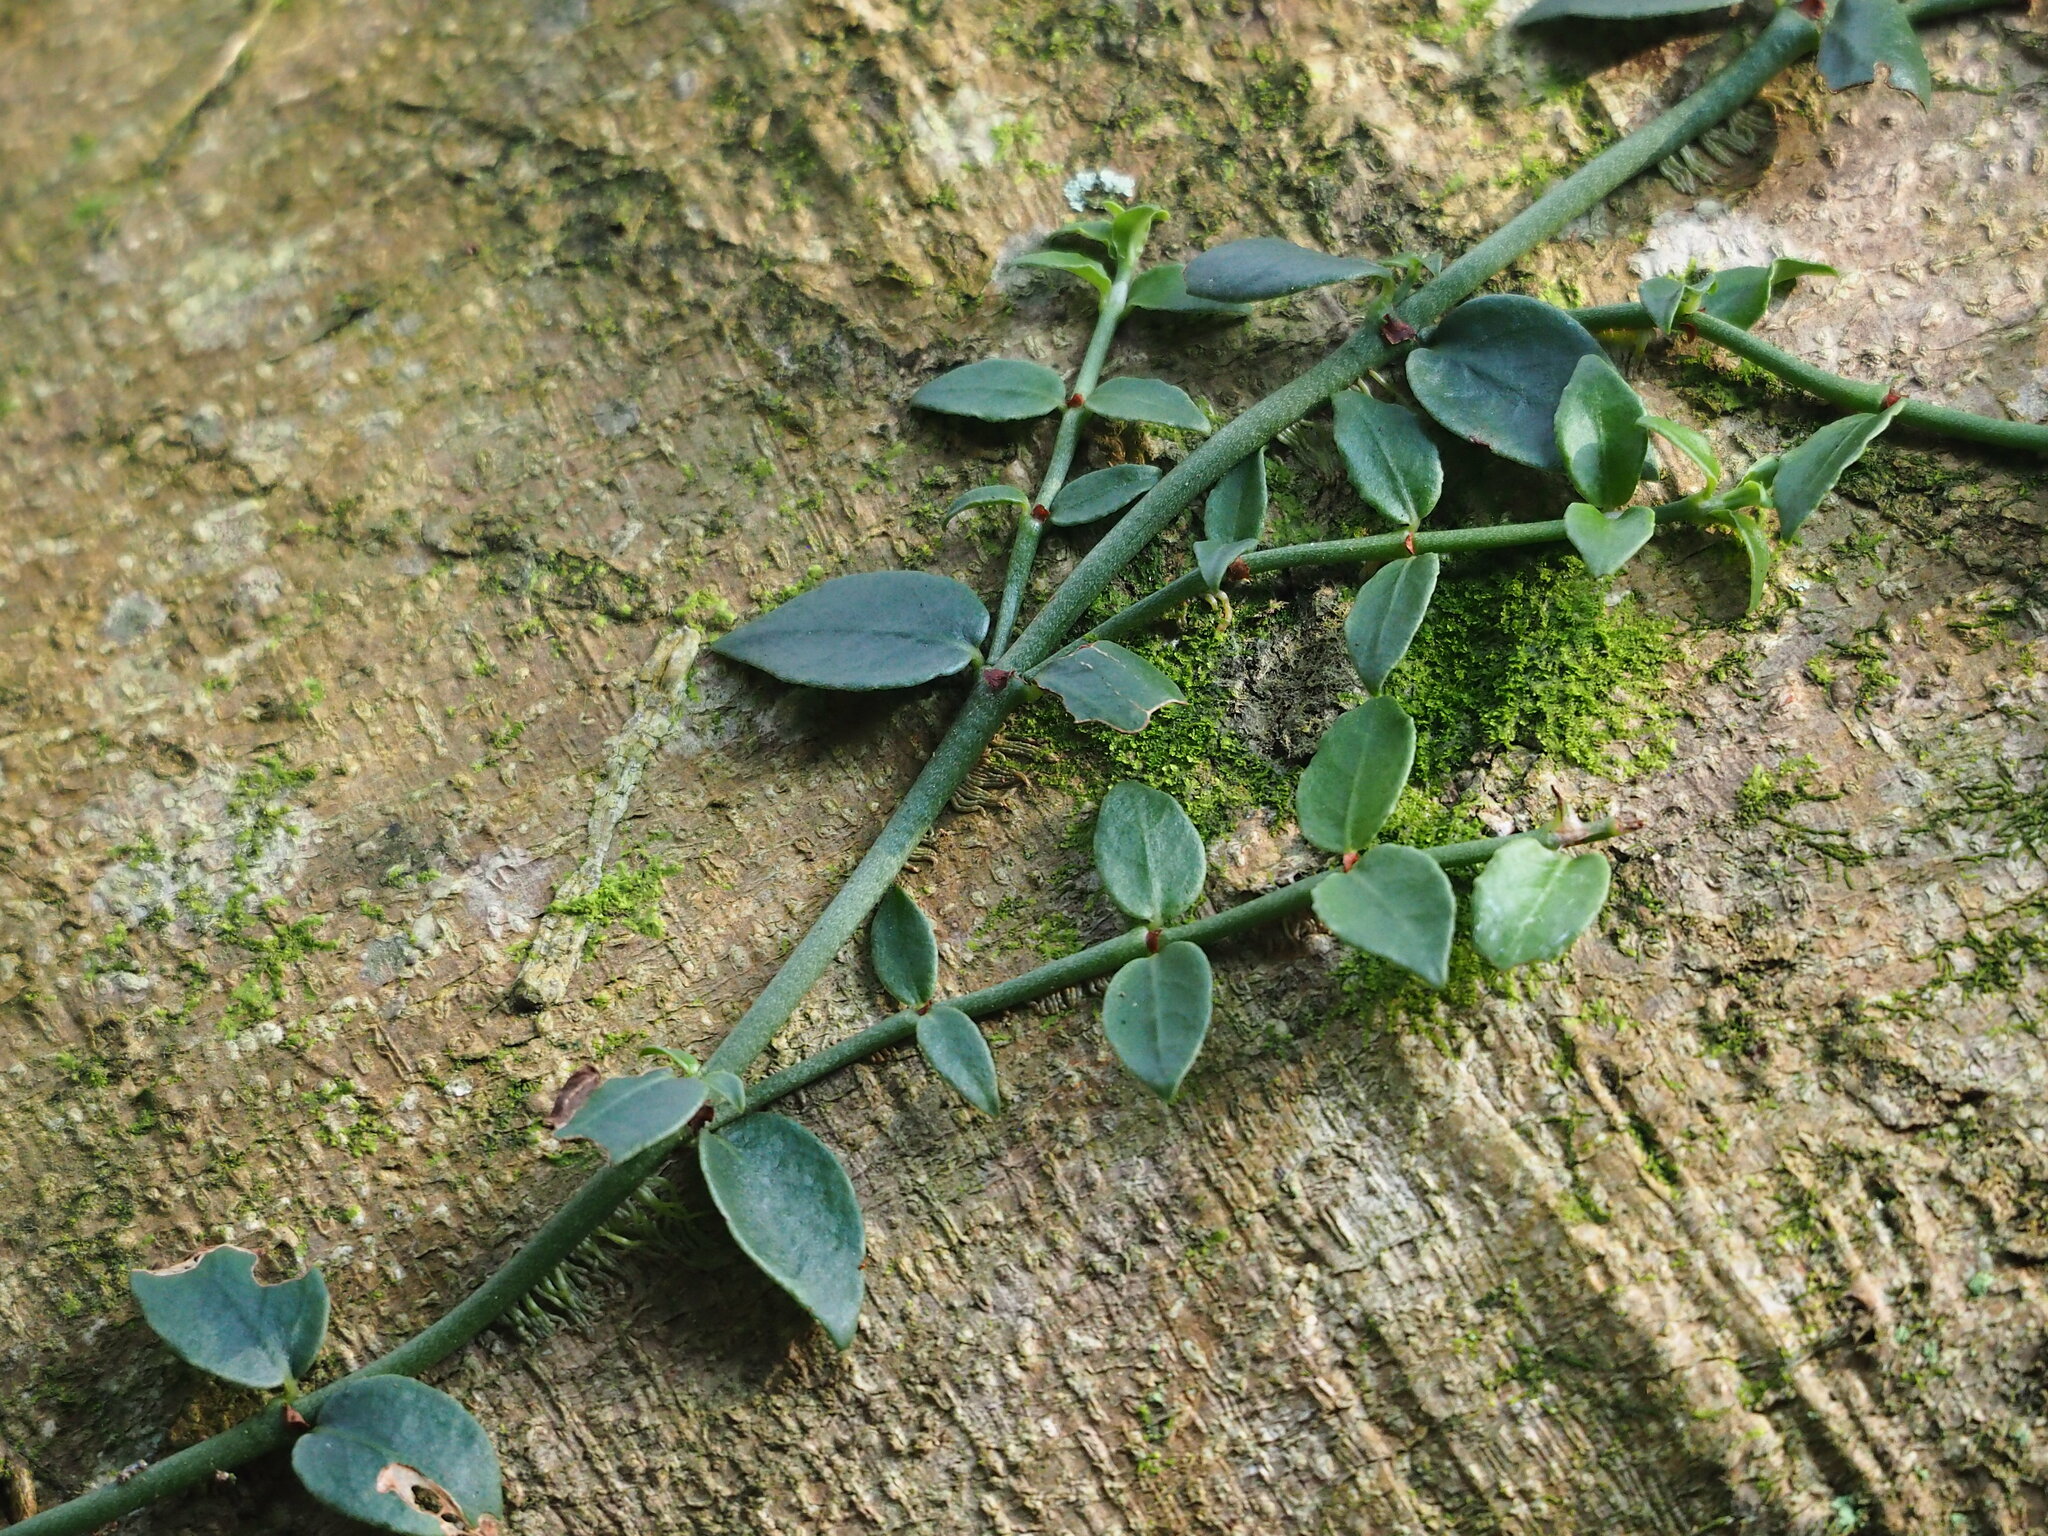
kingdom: Plantae
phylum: Tracheophyta
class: Magnoliopsida
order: Gentianales
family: Rubiaceae
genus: Psychotria
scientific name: Psychotria serpens
